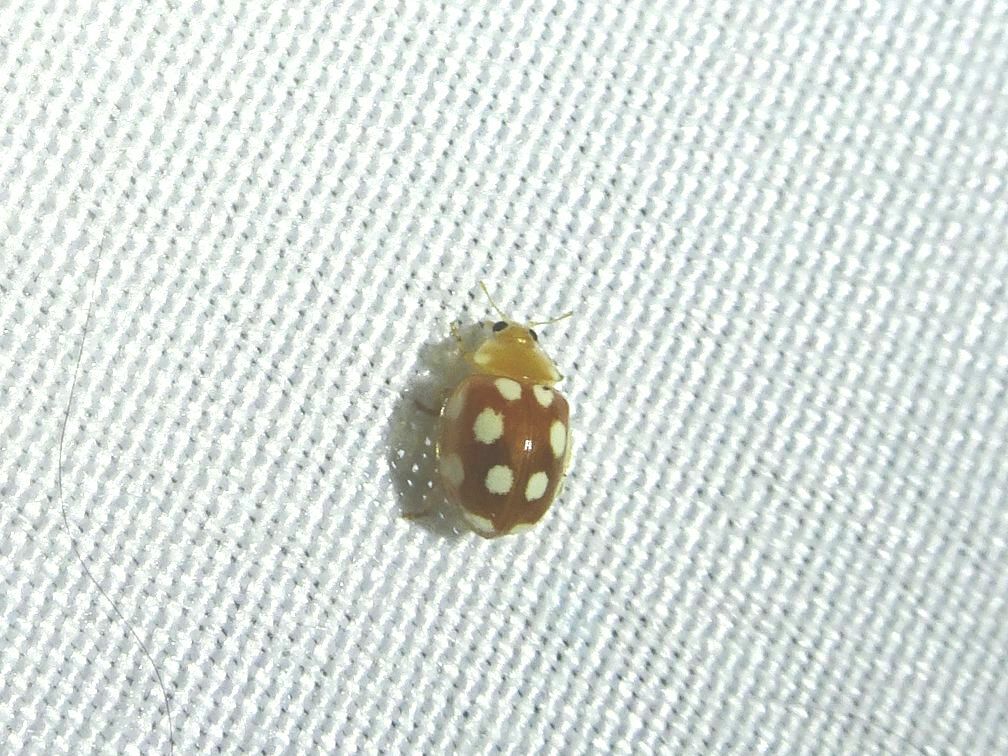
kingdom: Animalia
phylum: Arthropoda
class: Insecta
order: Coleoptera
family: Coccinellidae
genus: Vibidia
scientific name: Vibidia duodecimguttata
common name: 12-spot ladybird
